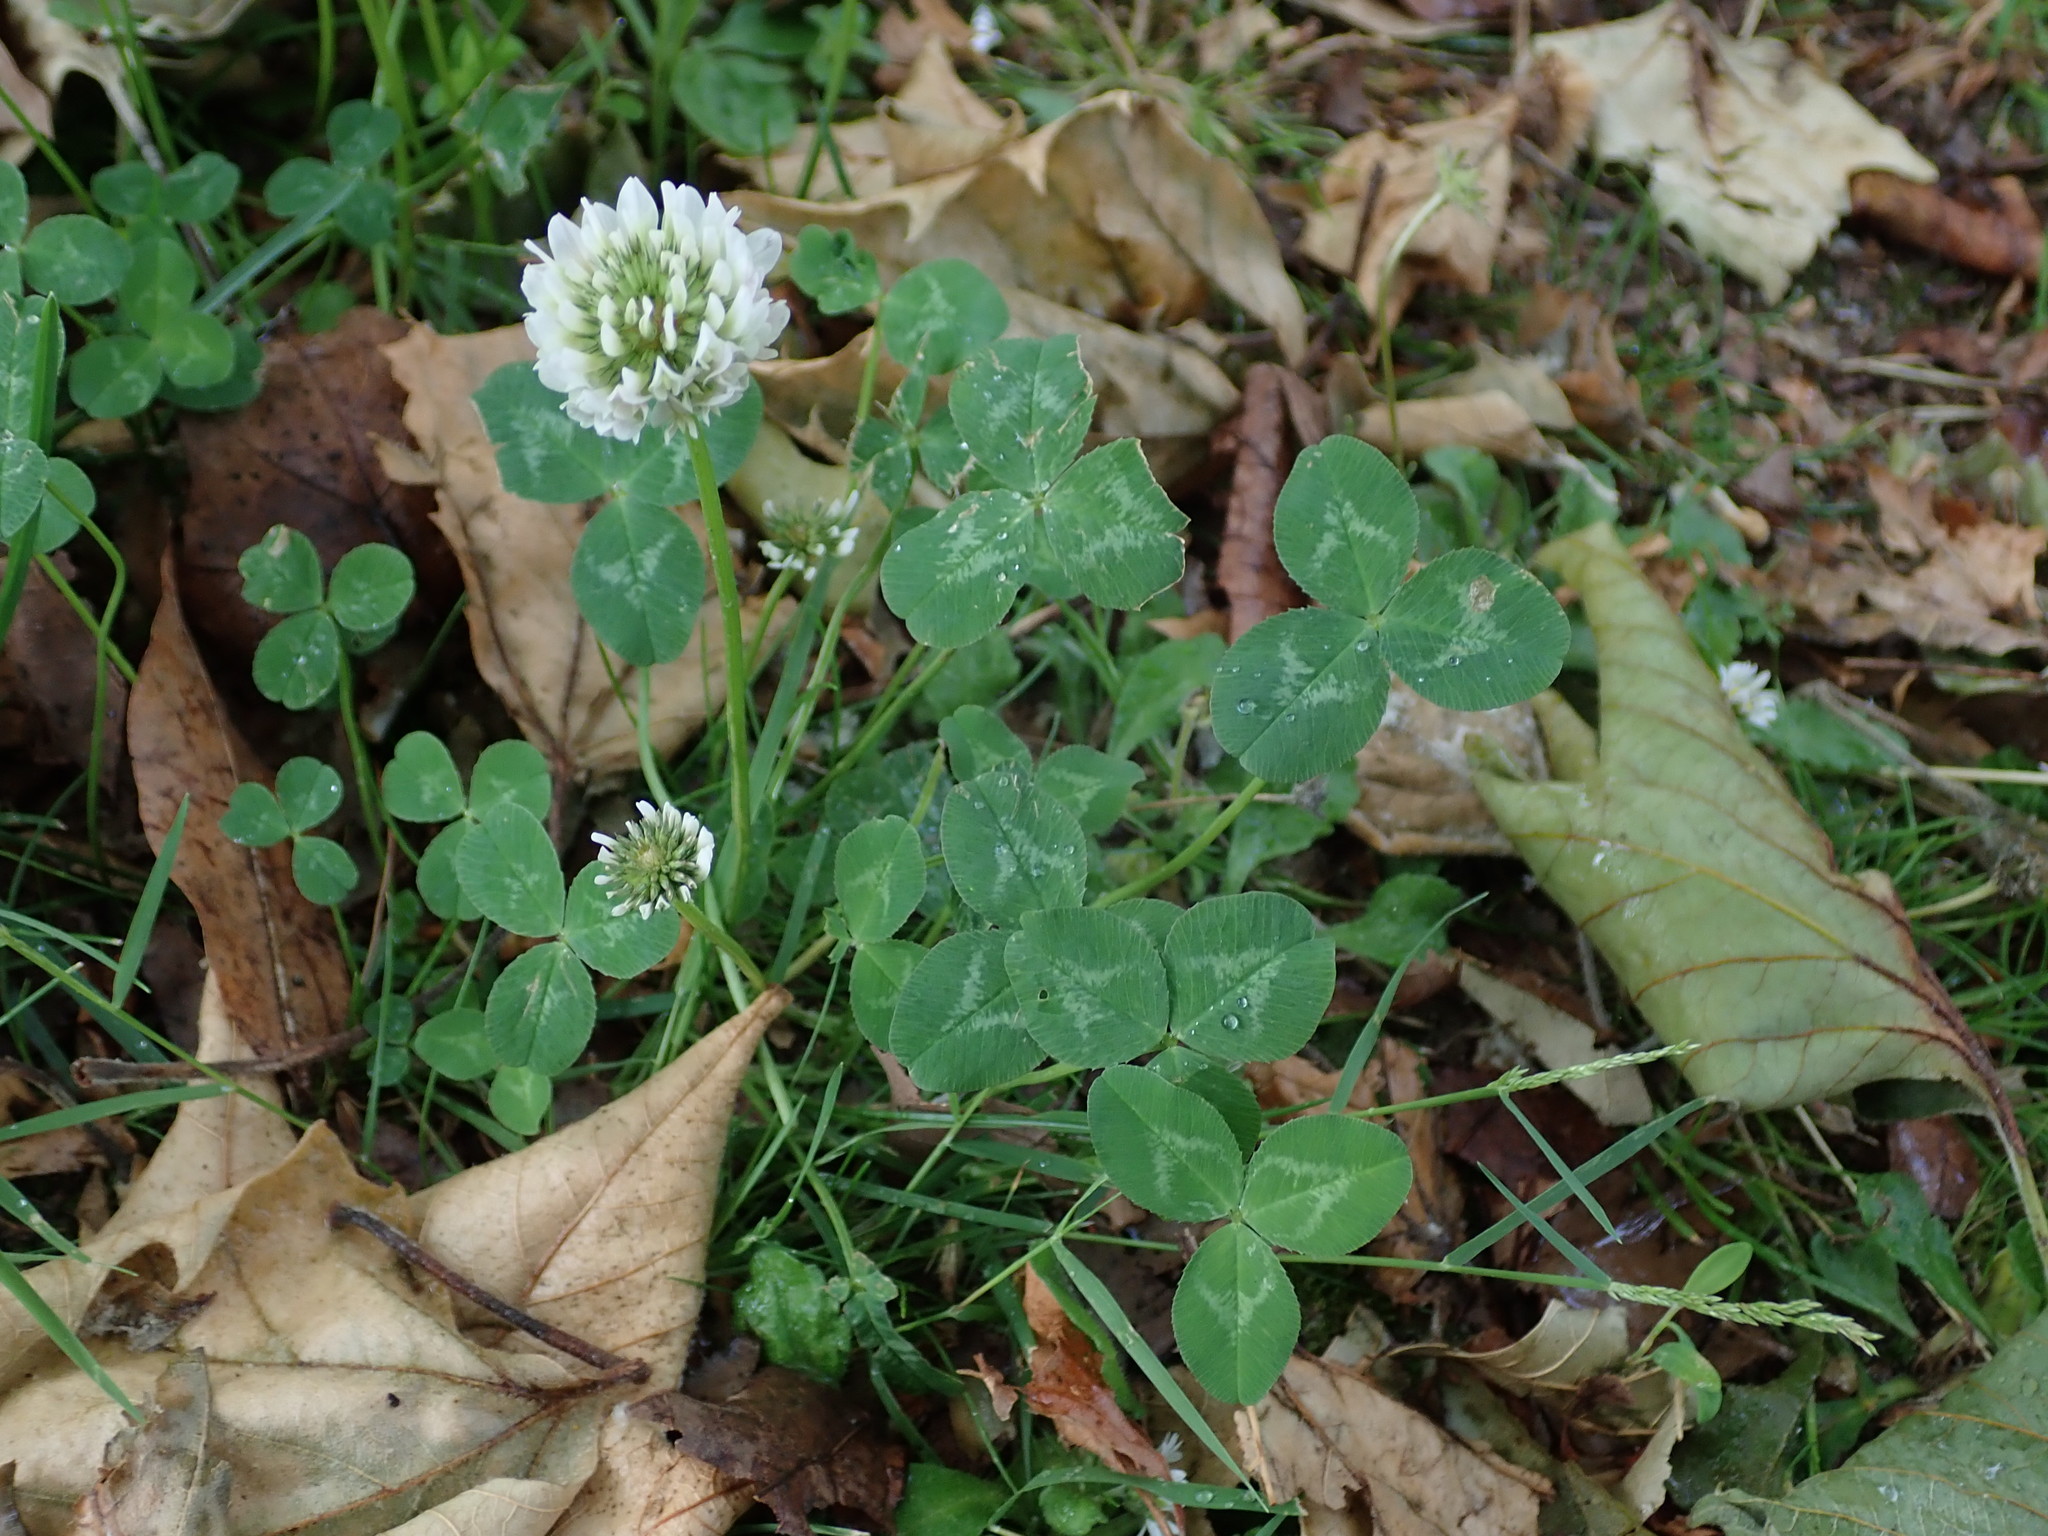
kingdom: Plantae
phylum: Tracheophyta
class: Magnoliopsida
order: Fabales
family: Fabaceae
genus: Trifolium
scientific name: Trifolium repens
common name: White clover
